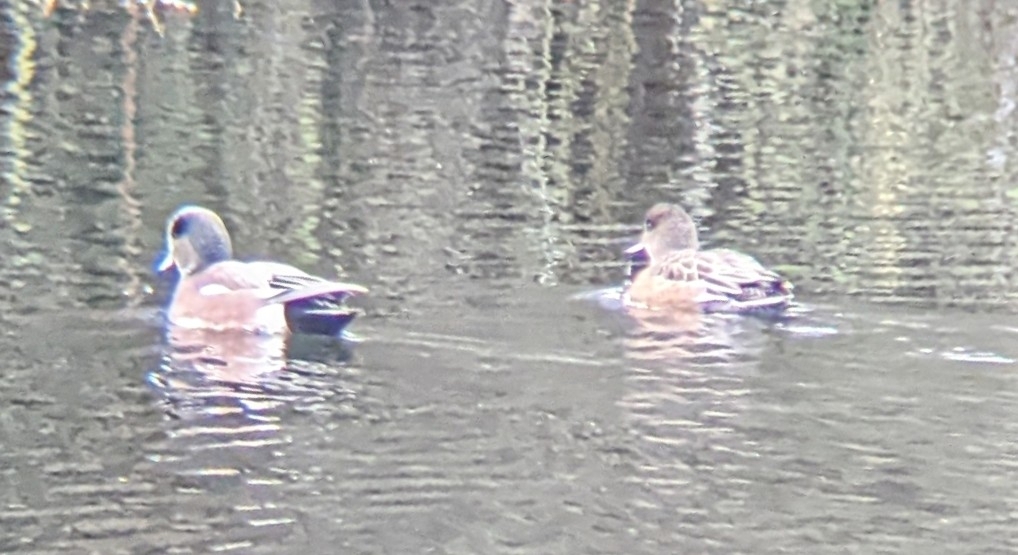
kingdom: Animalia
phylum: Chordata
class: Aves
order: Anseriformes
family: Anatidae
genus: Mareca
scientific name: Mareca americana
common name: American wigeon
